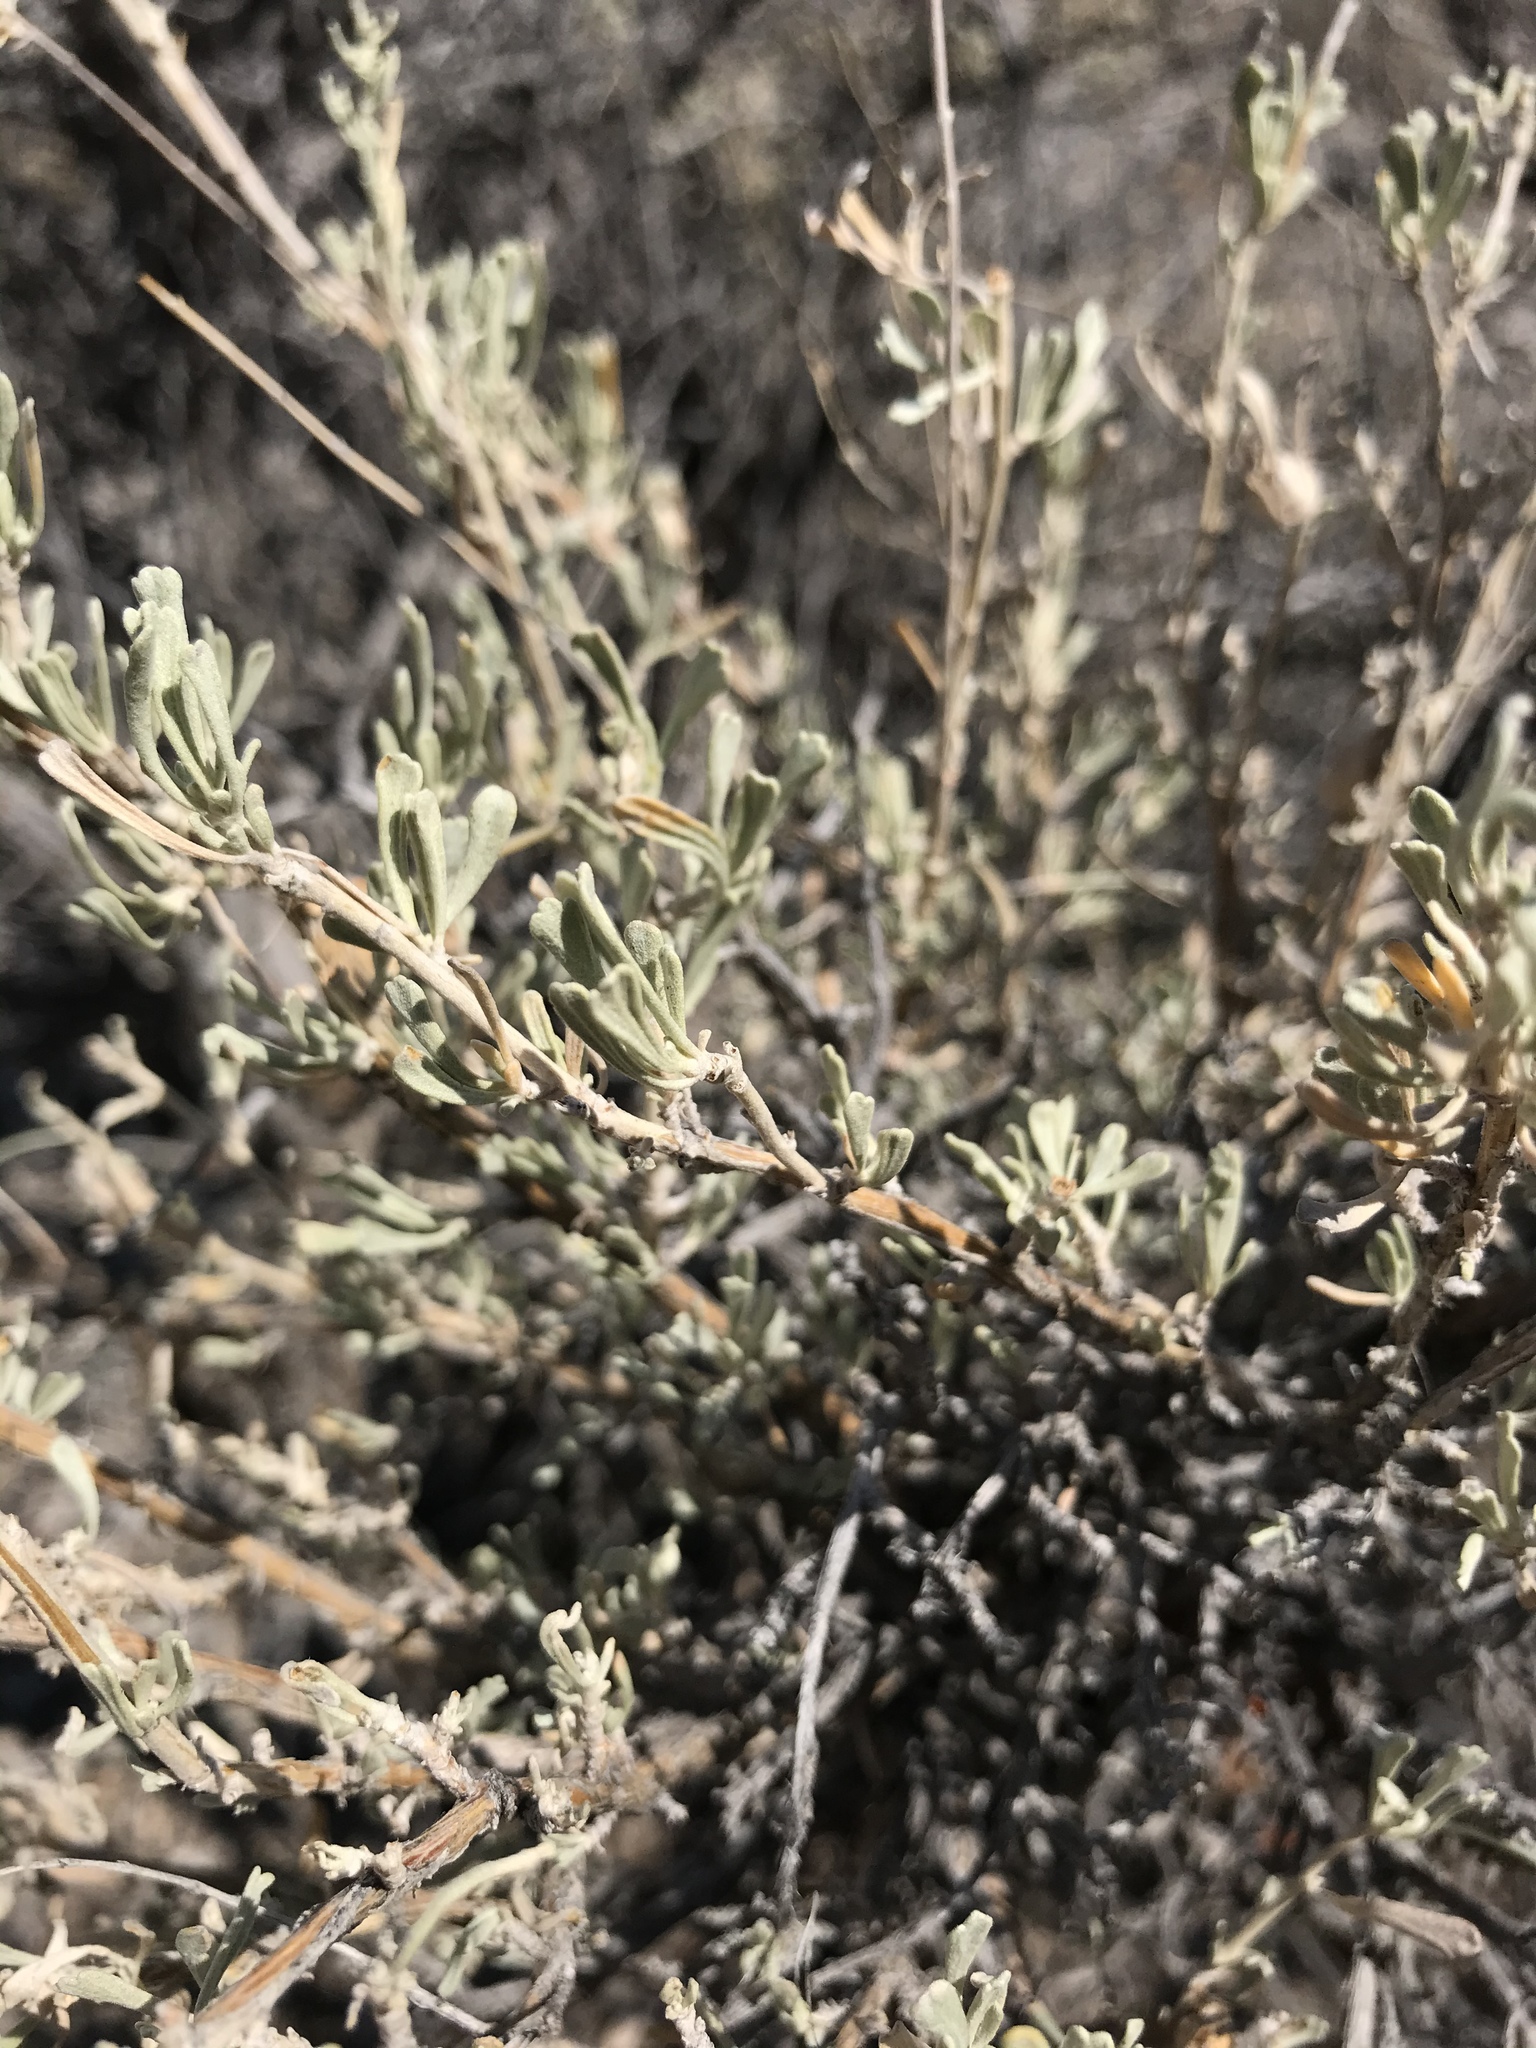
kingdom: Plantae
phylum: Tracheophyta
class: Magnoliopsida
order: Asterales
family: Asteraceae
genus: Artemisia
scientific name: Artemisia tridentata
